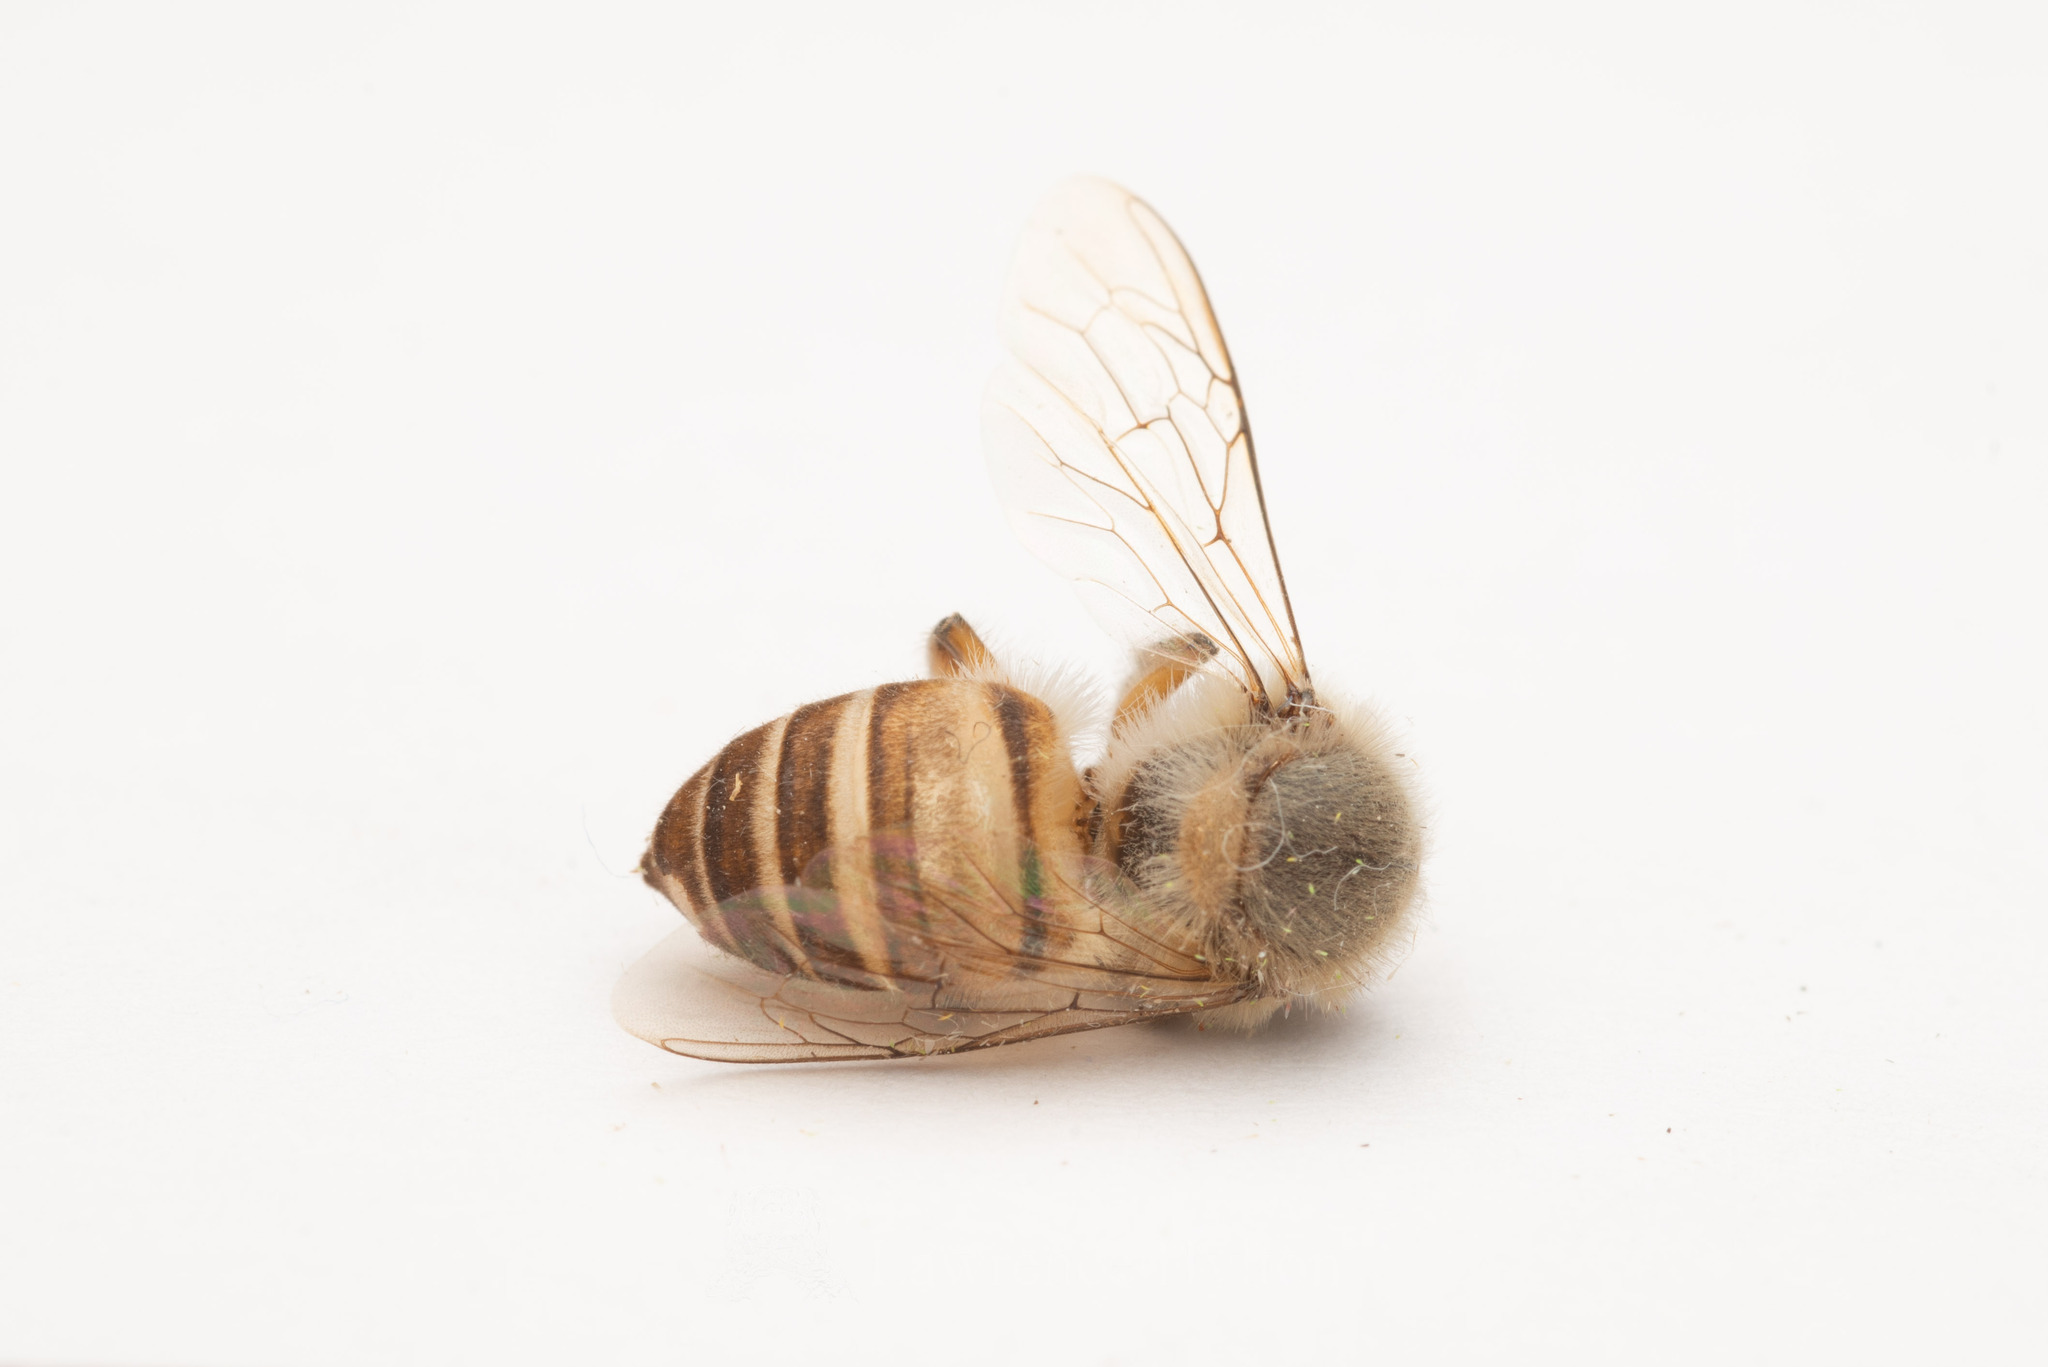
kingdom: Animalia
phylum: Arthropoda
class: Insecta
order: Hymenoptera
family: Apidae
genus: Apis
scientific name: Apis cerana
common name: Honey bee
